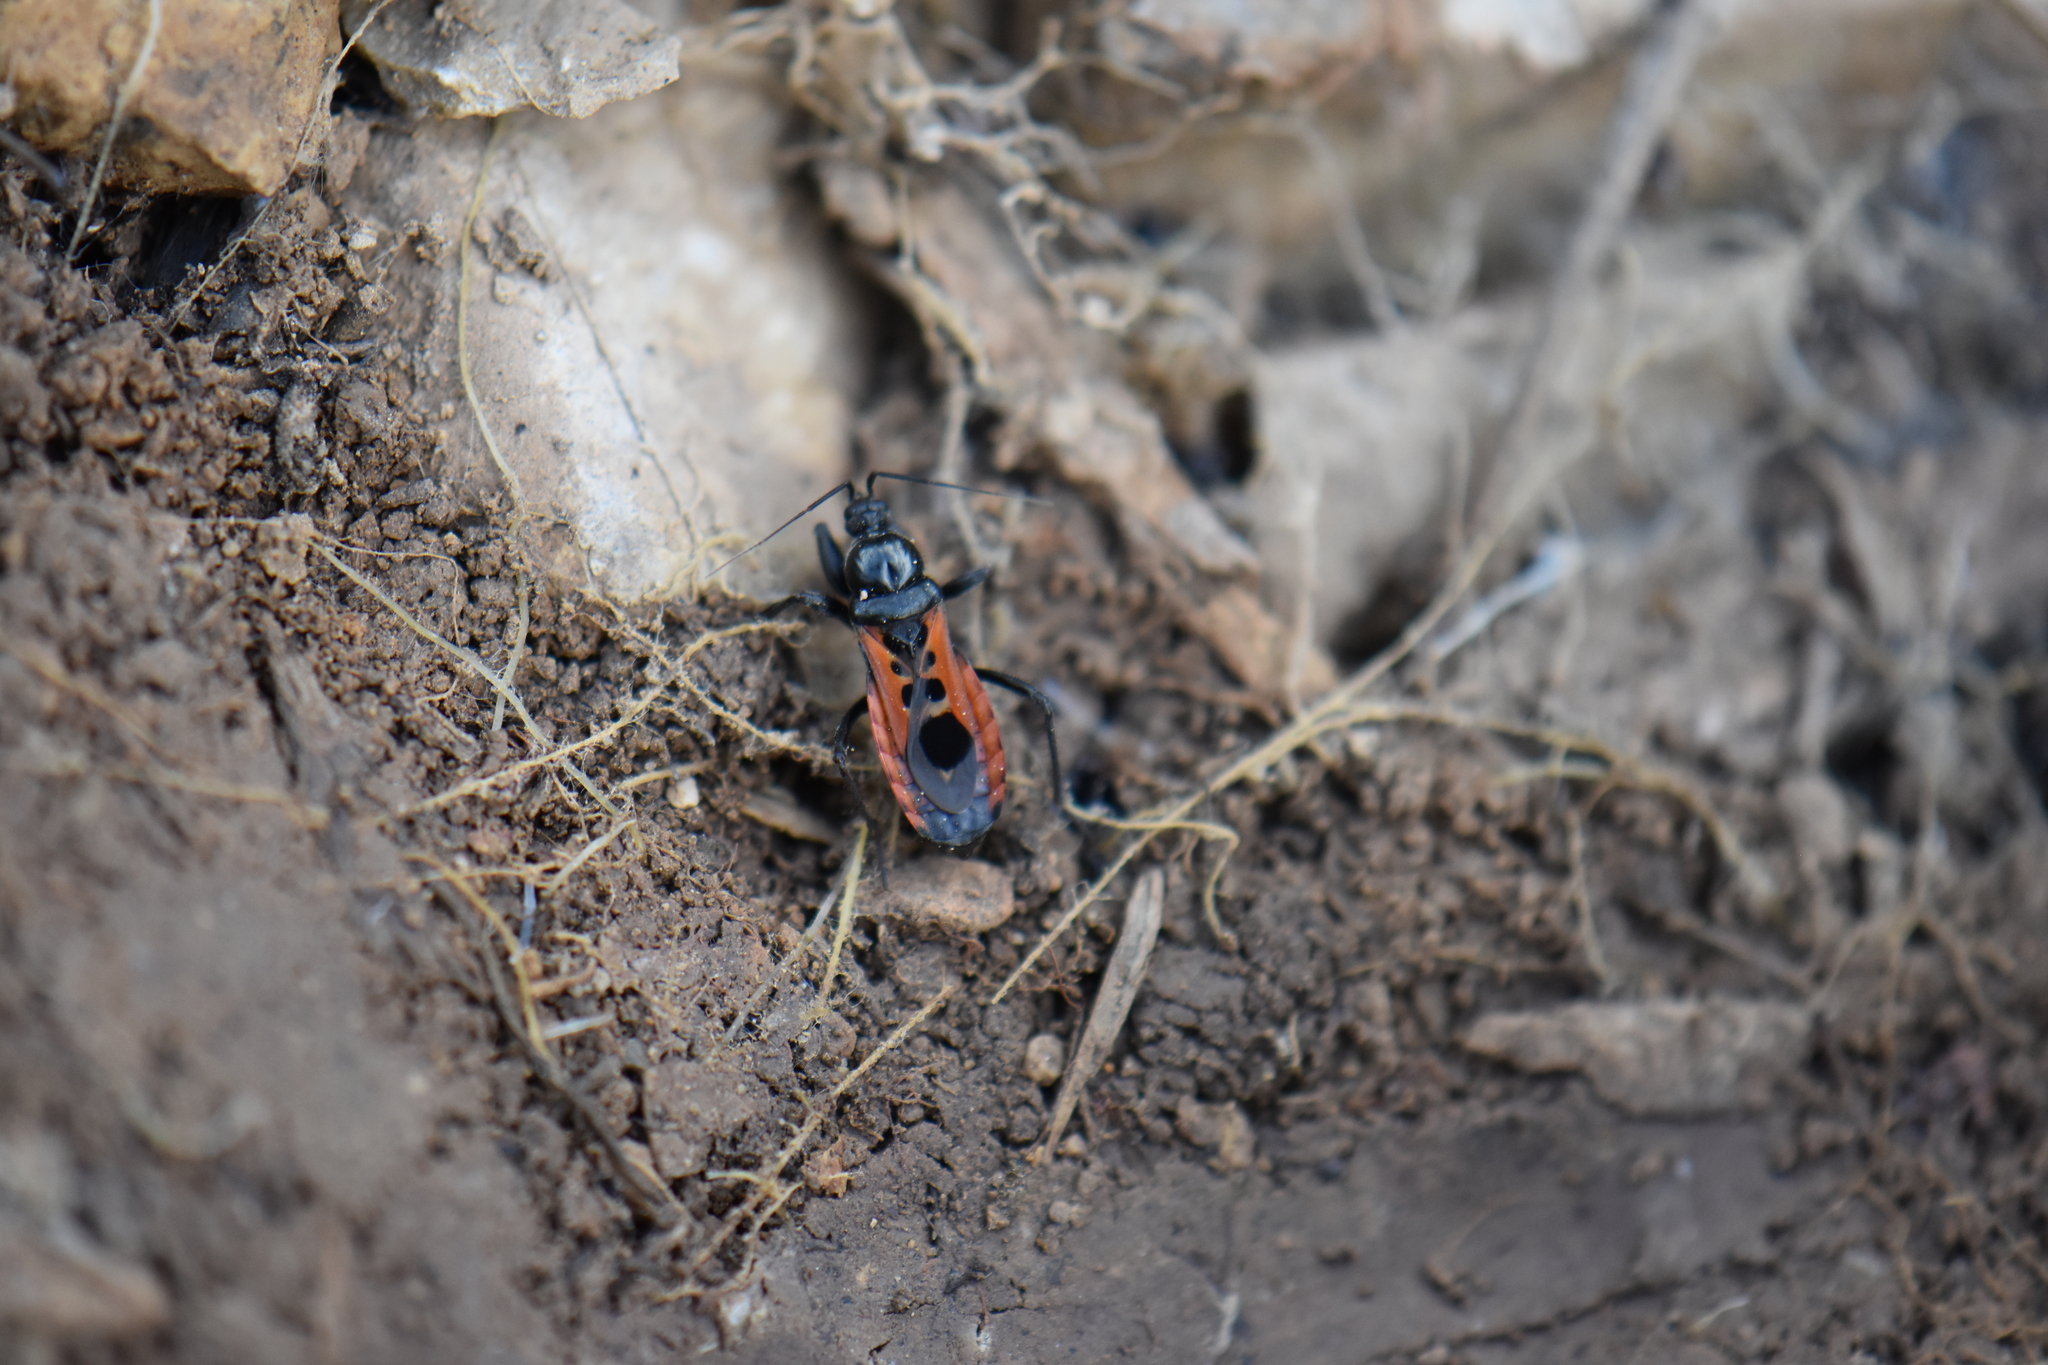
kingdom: Animalia
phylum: Arthropoda
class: Insecta
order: Hemiptera
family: Reduviidae
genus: Peirates
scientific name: Peirates stridulus
